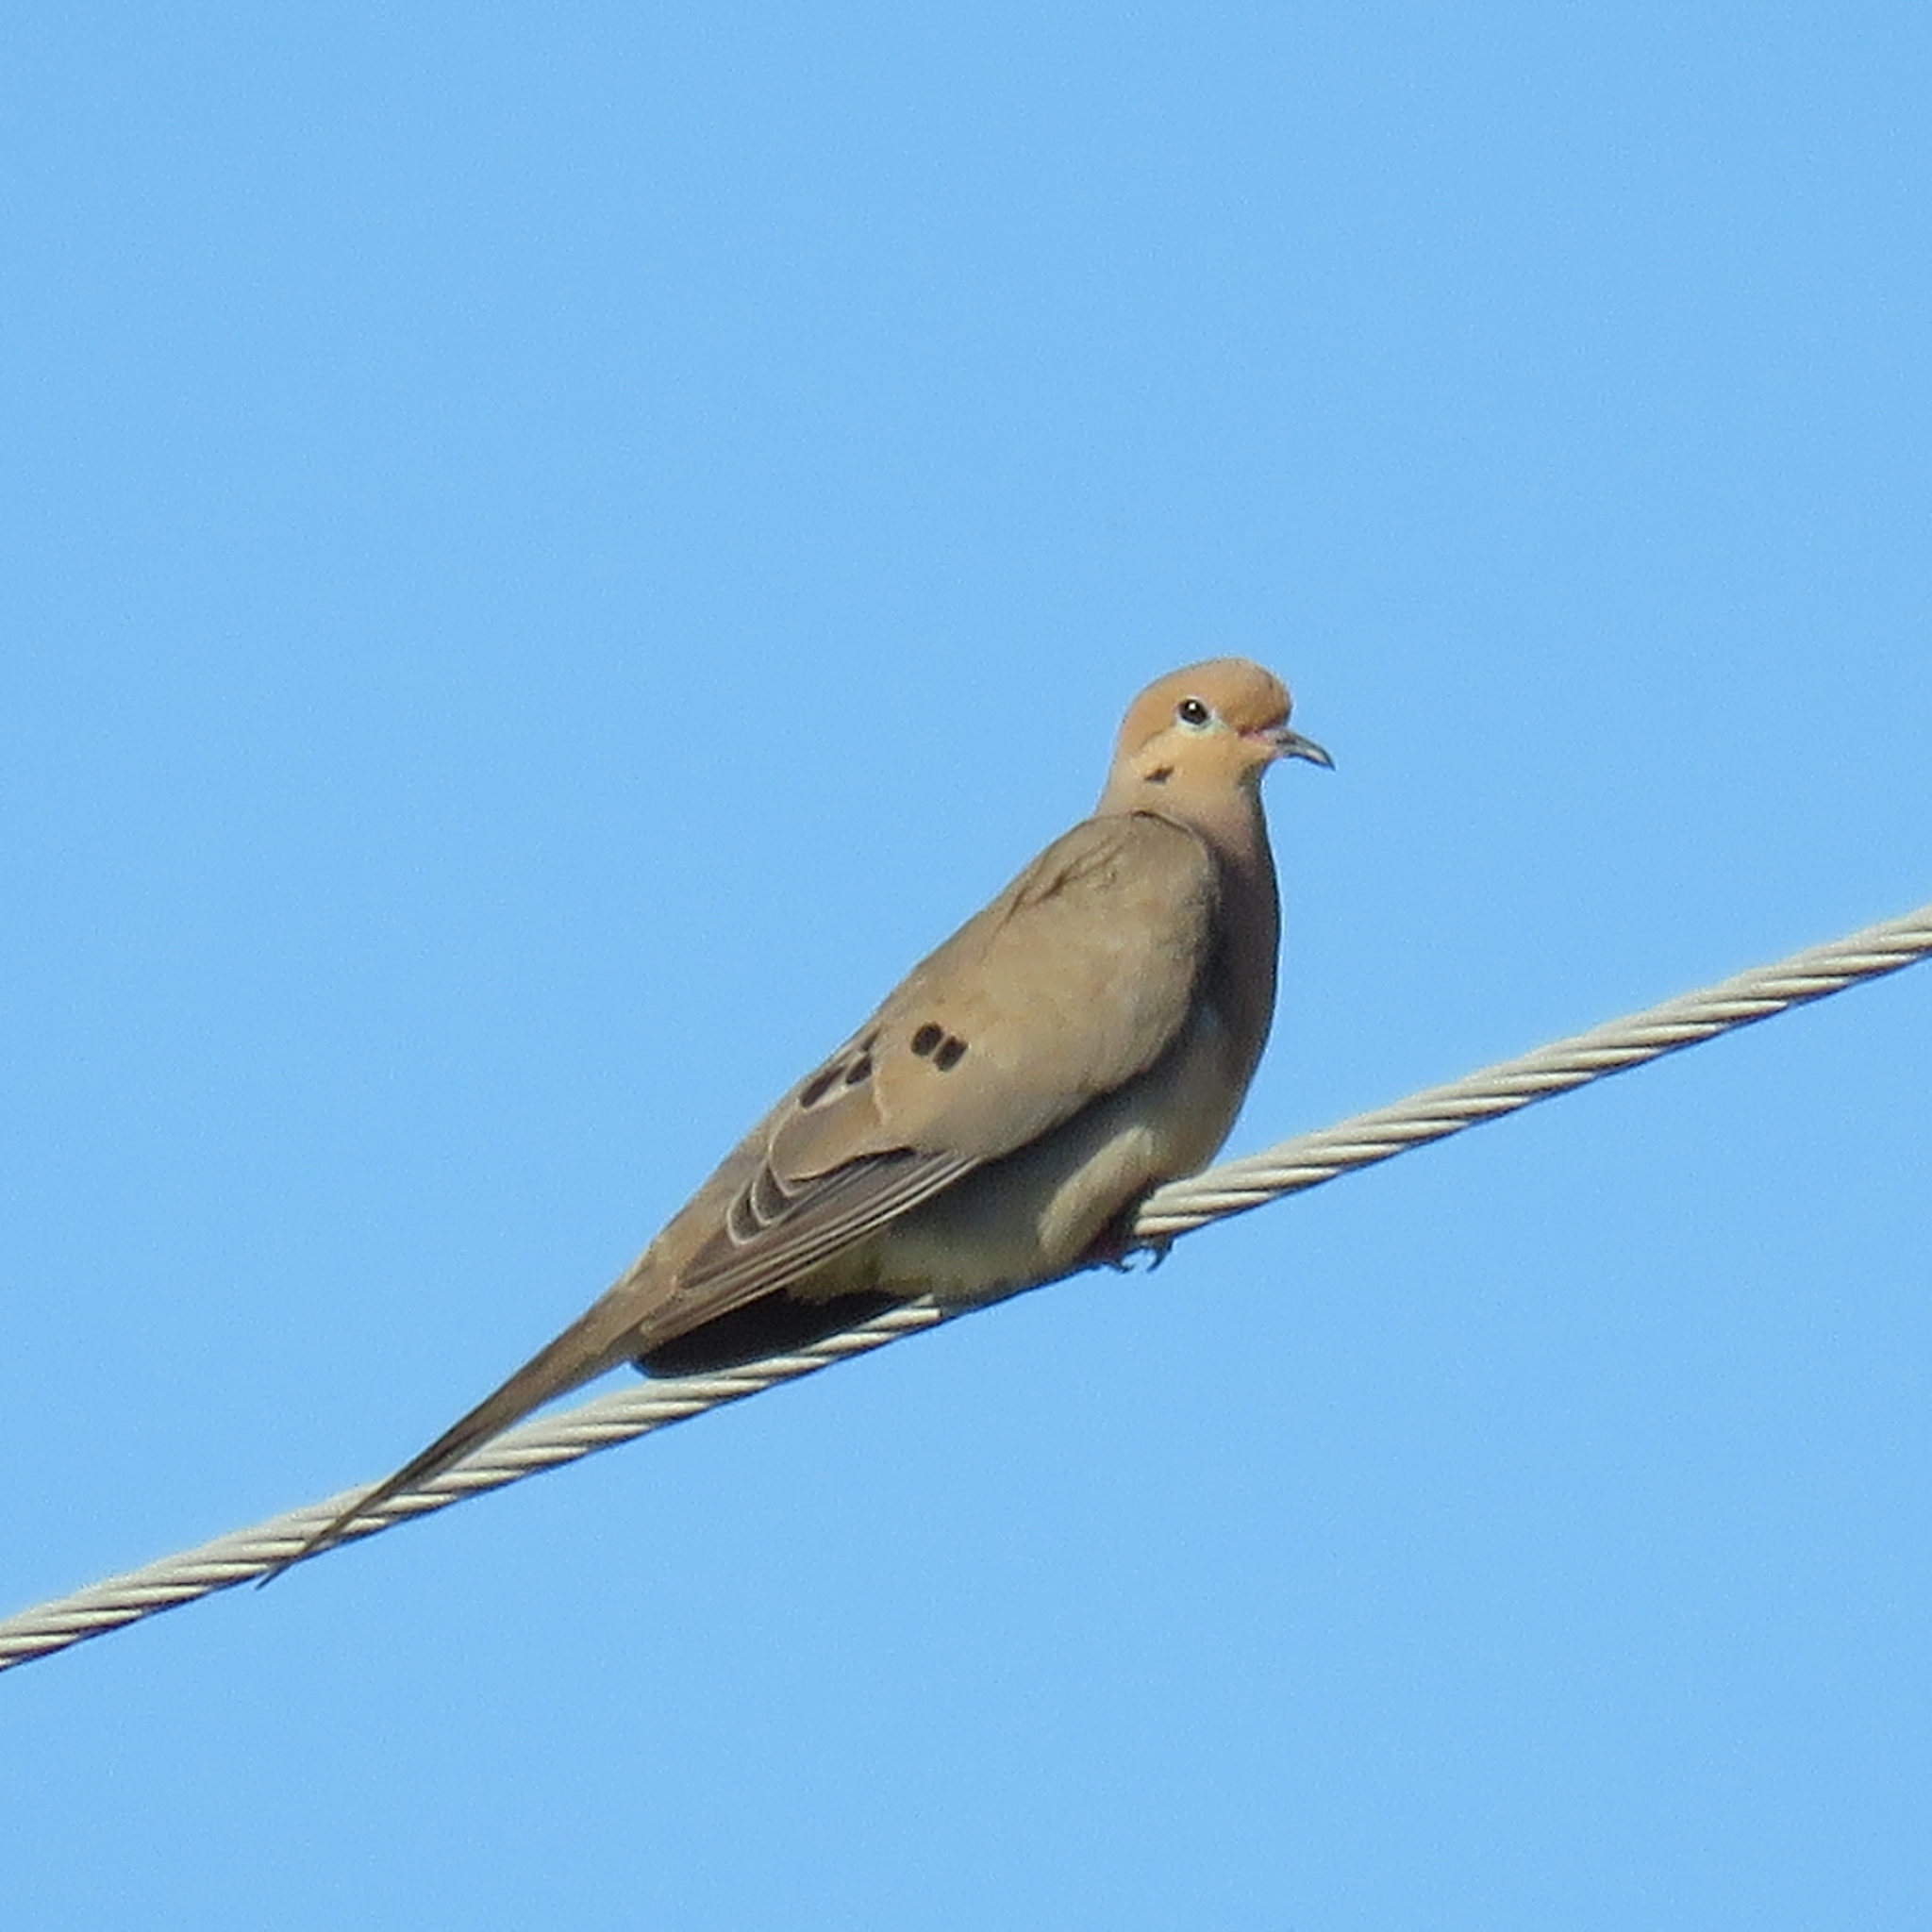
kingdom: Animalia
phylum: Chordata
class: Aves
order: Columbiformes
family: Columbidae
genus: Zenaida
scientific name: Zenaida macroura
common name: Mourning dove
